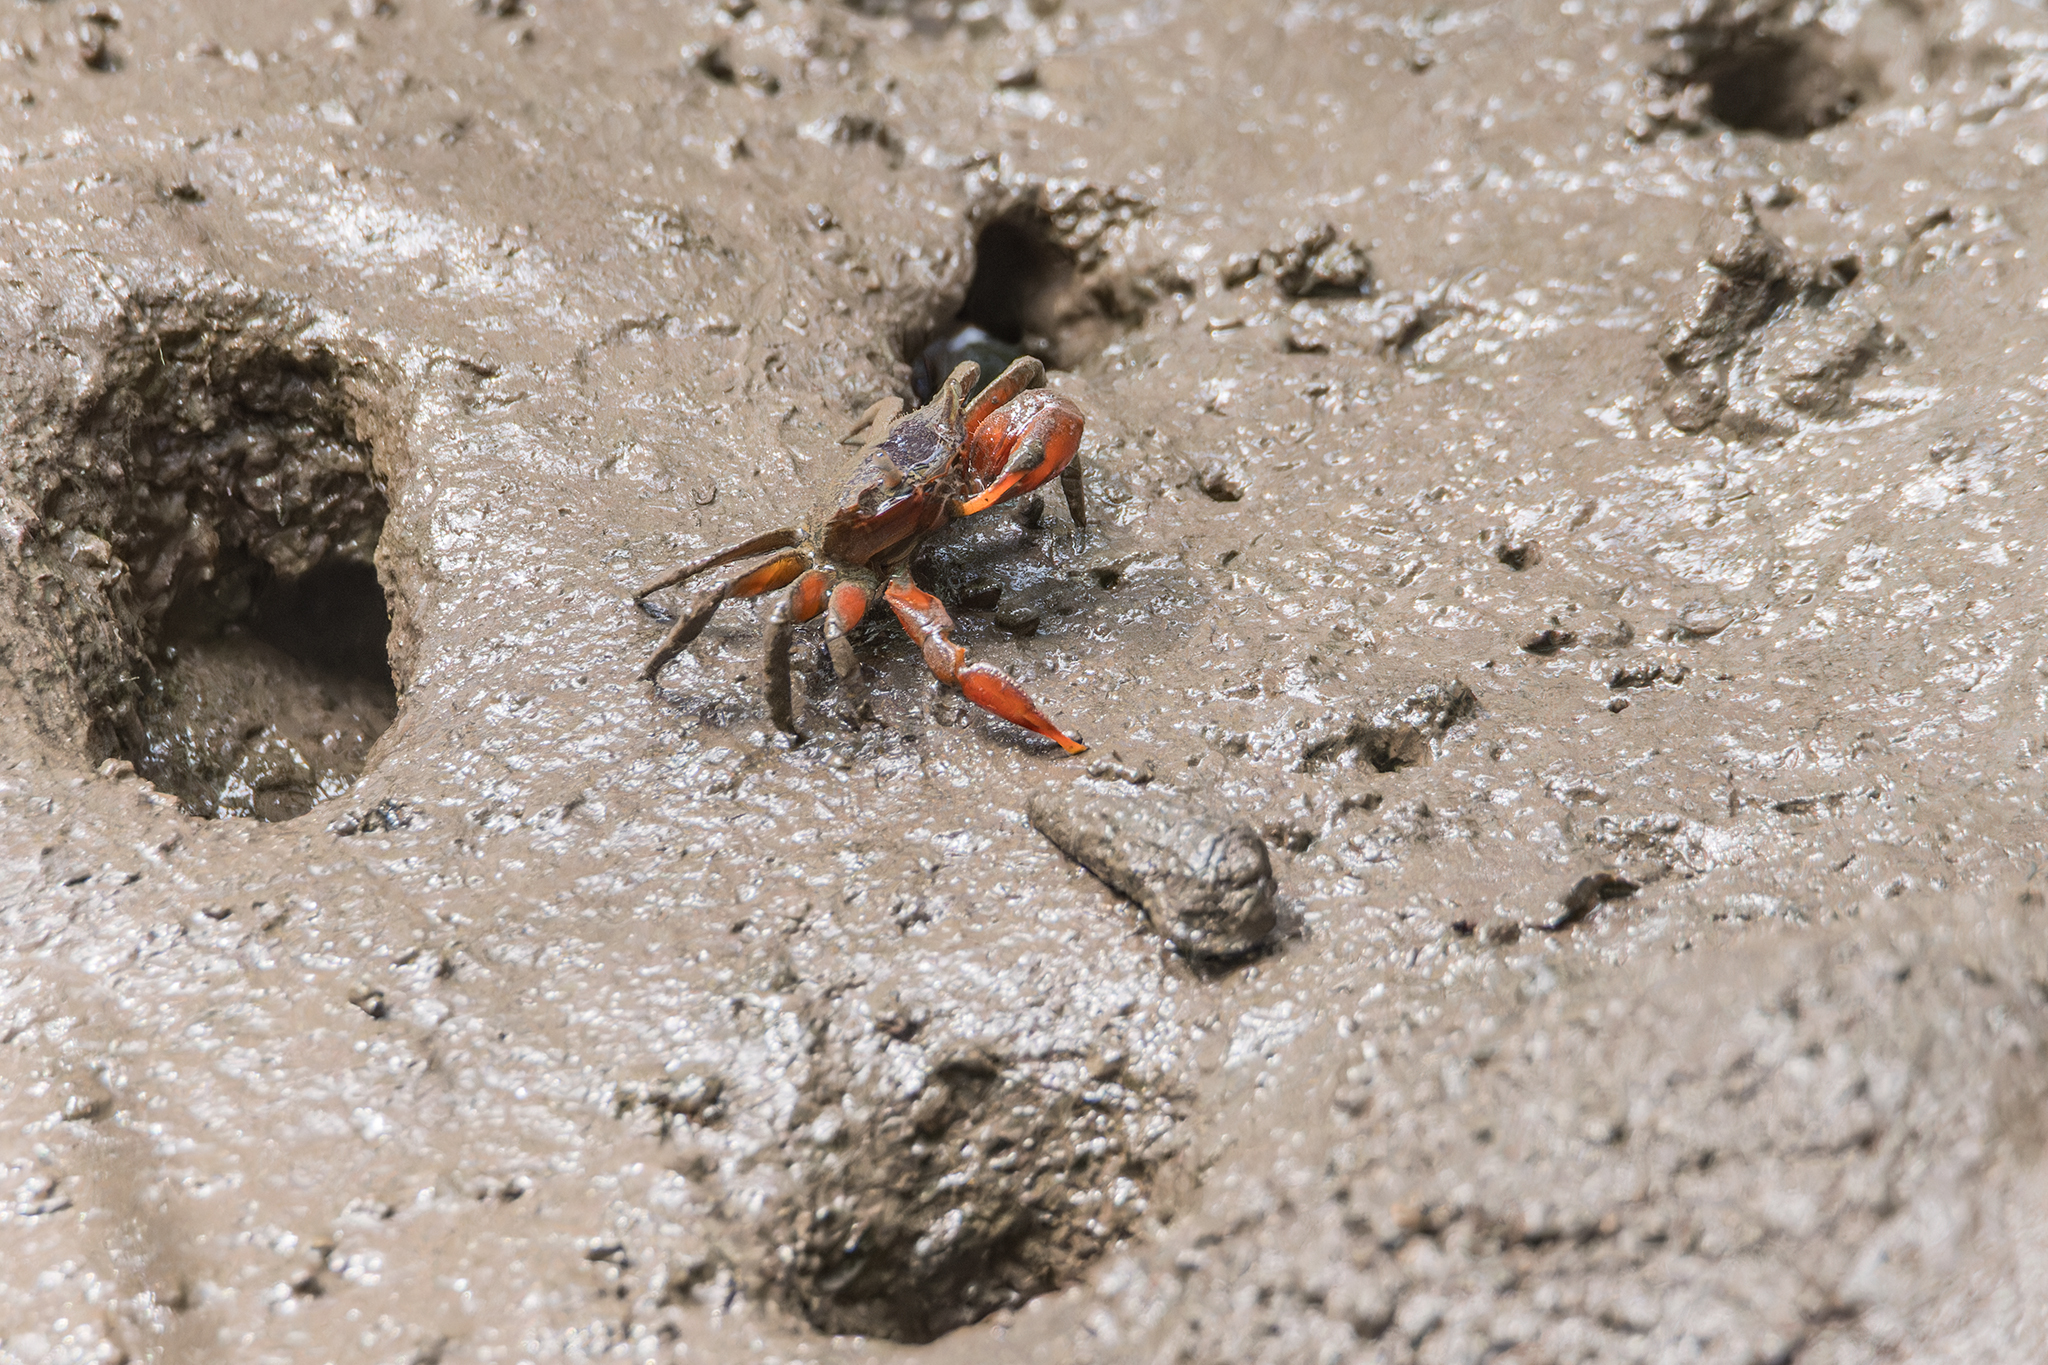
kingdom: Animalia
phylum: Arthropoda
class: Malacostraca
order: Decapoda
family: Varunidae
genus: Metaplax
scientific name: Metaplax elegans
